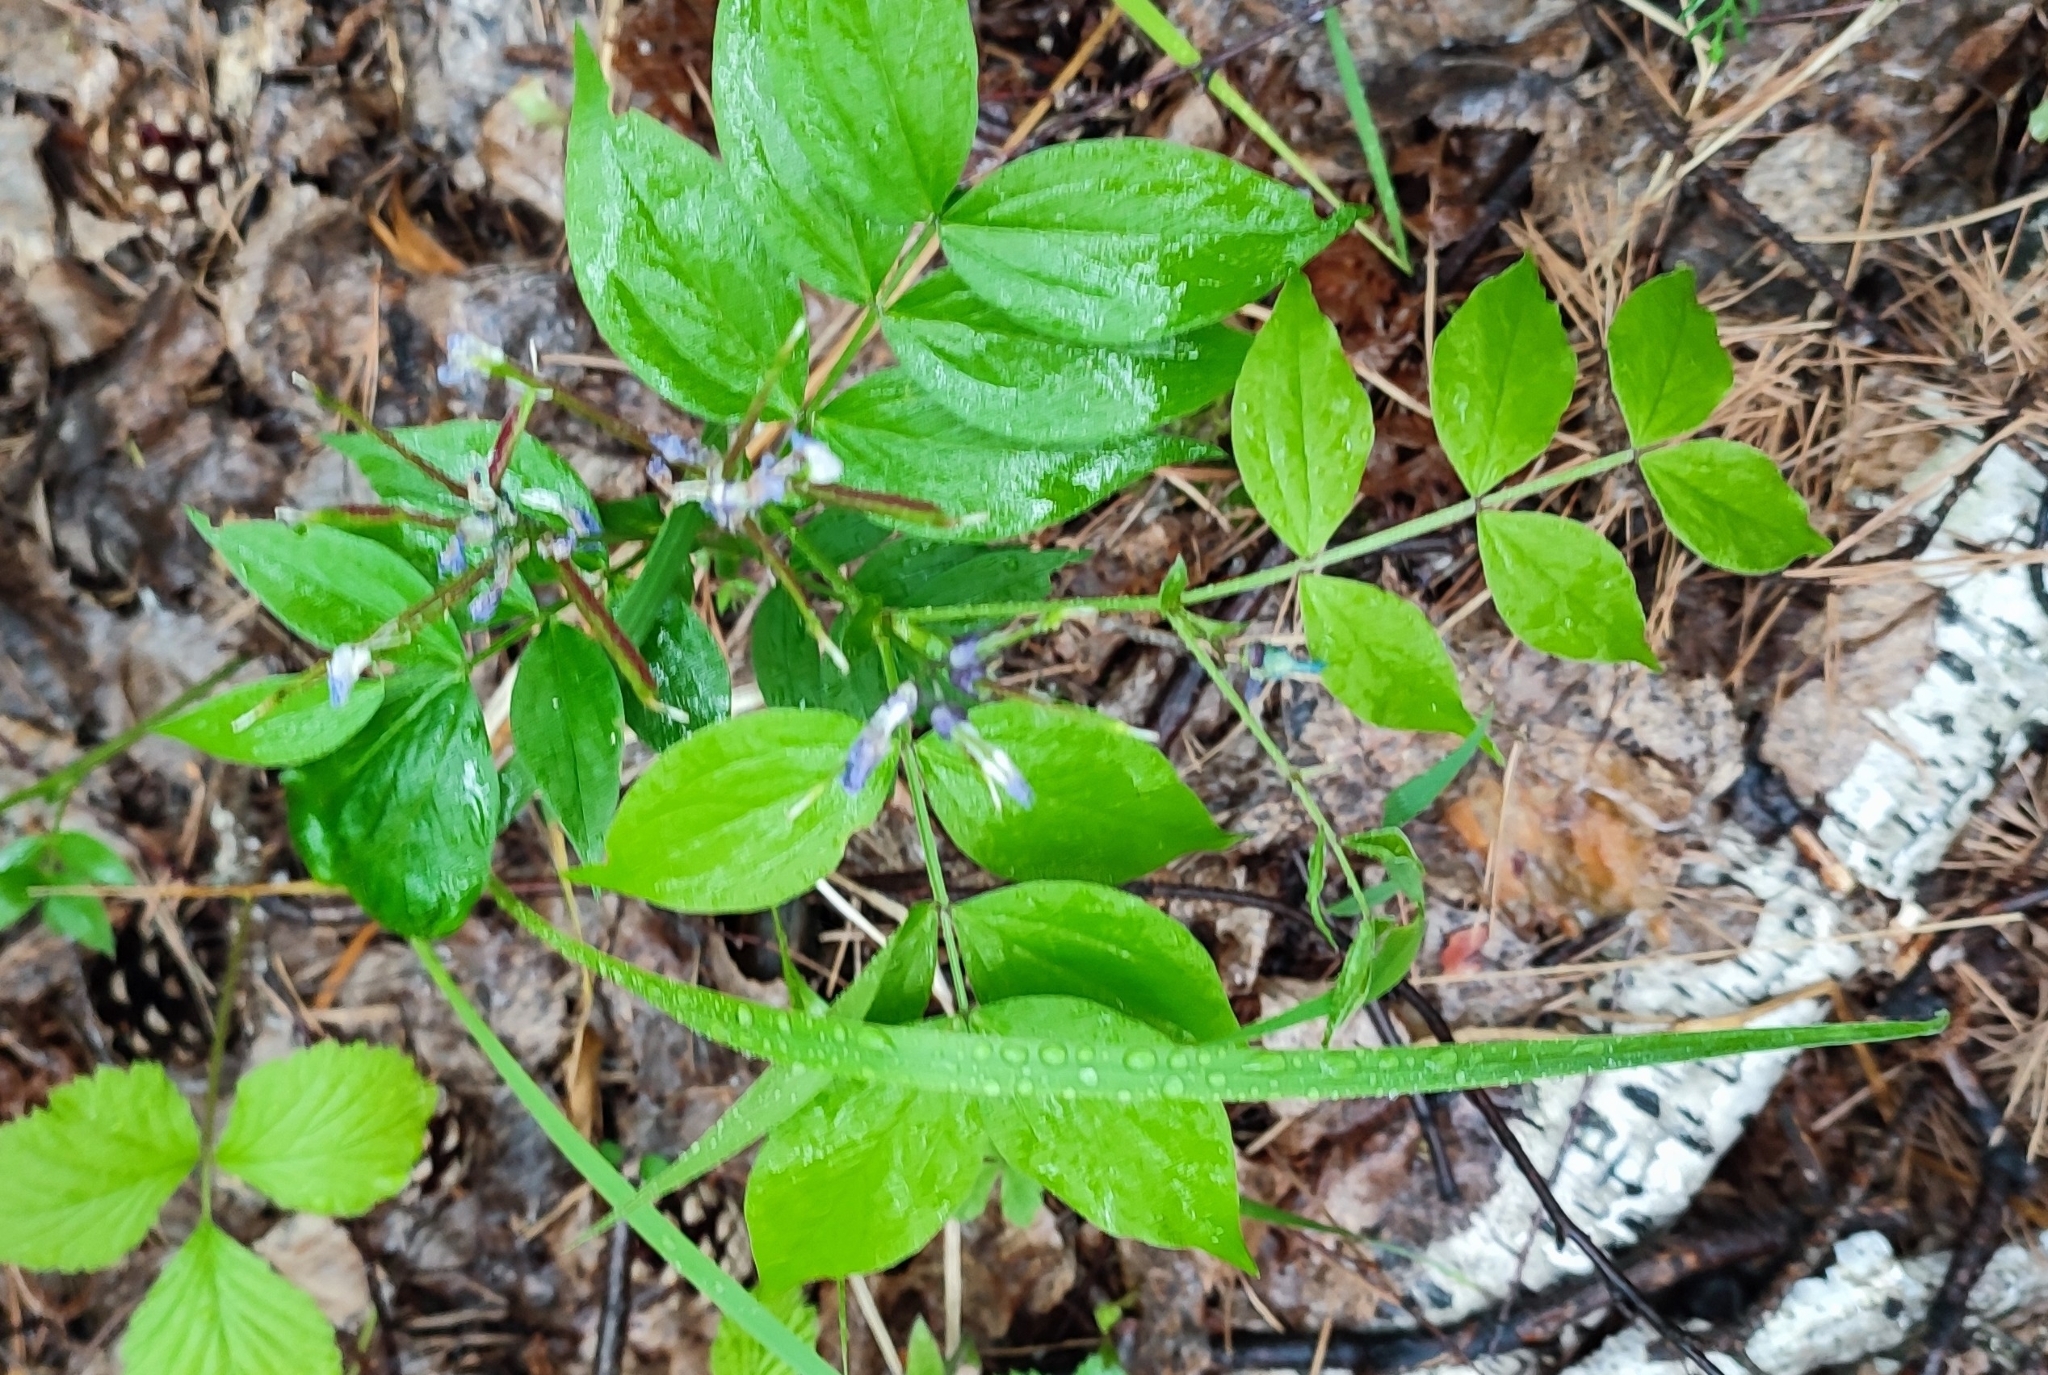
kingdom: Plantae
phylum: Tracheophyta
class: Magnoliopsida
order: Fabales
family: Fabaceae
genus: Lathyrus
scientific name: Lathyrus vernus
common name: Spring pea
